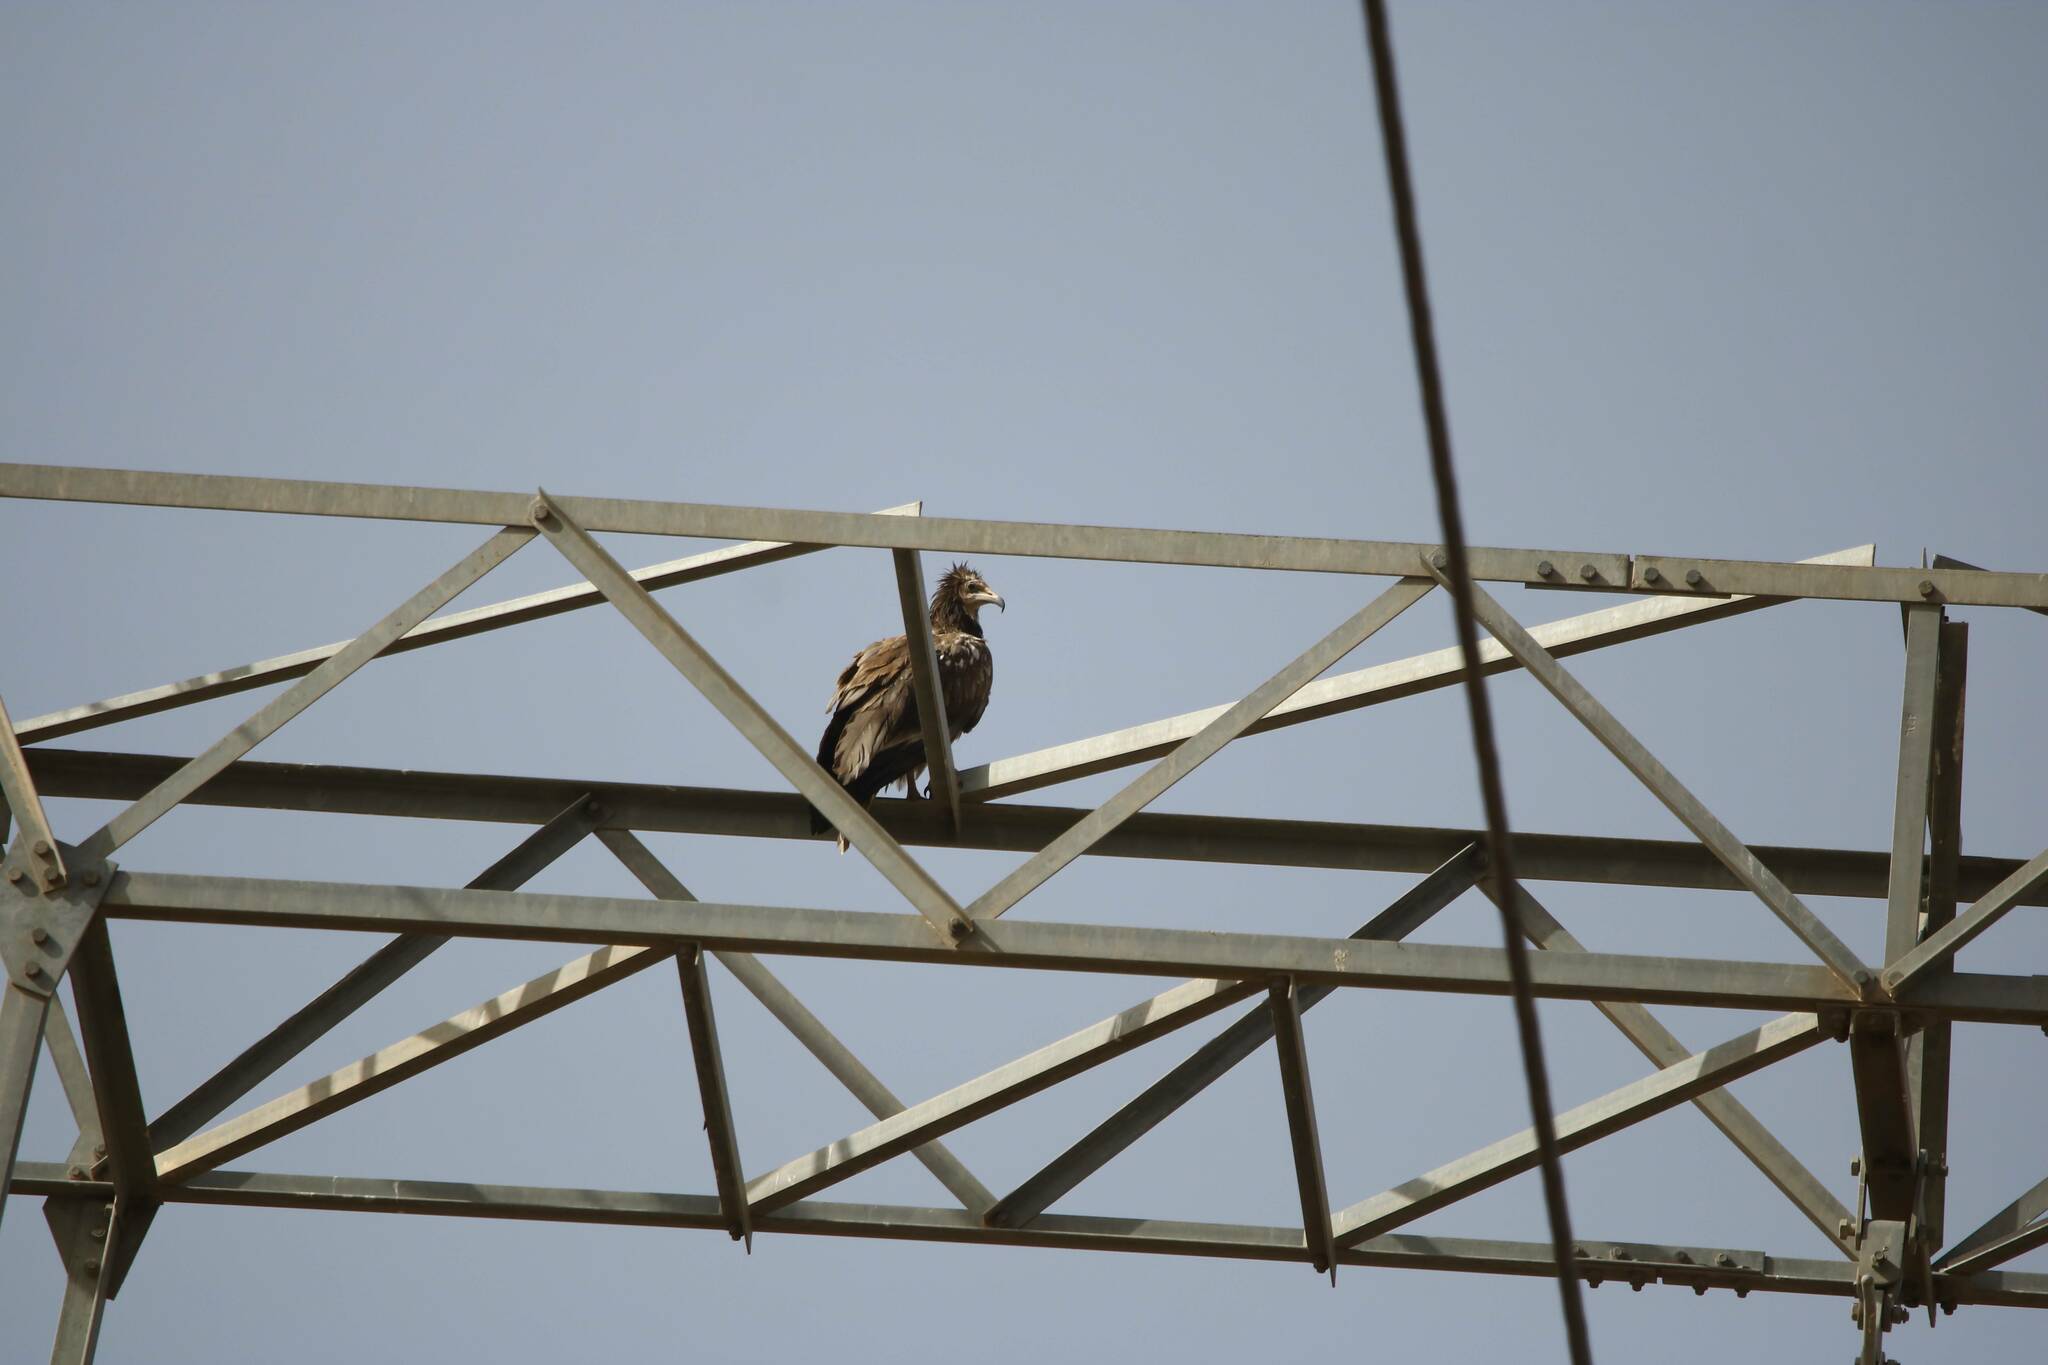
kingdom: Animalia
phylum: Chordata
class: Aves
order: Accipitriformes
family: Accipitridae
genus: Neophron
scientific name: Neophron percnopterus
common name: Egyptian vulture
